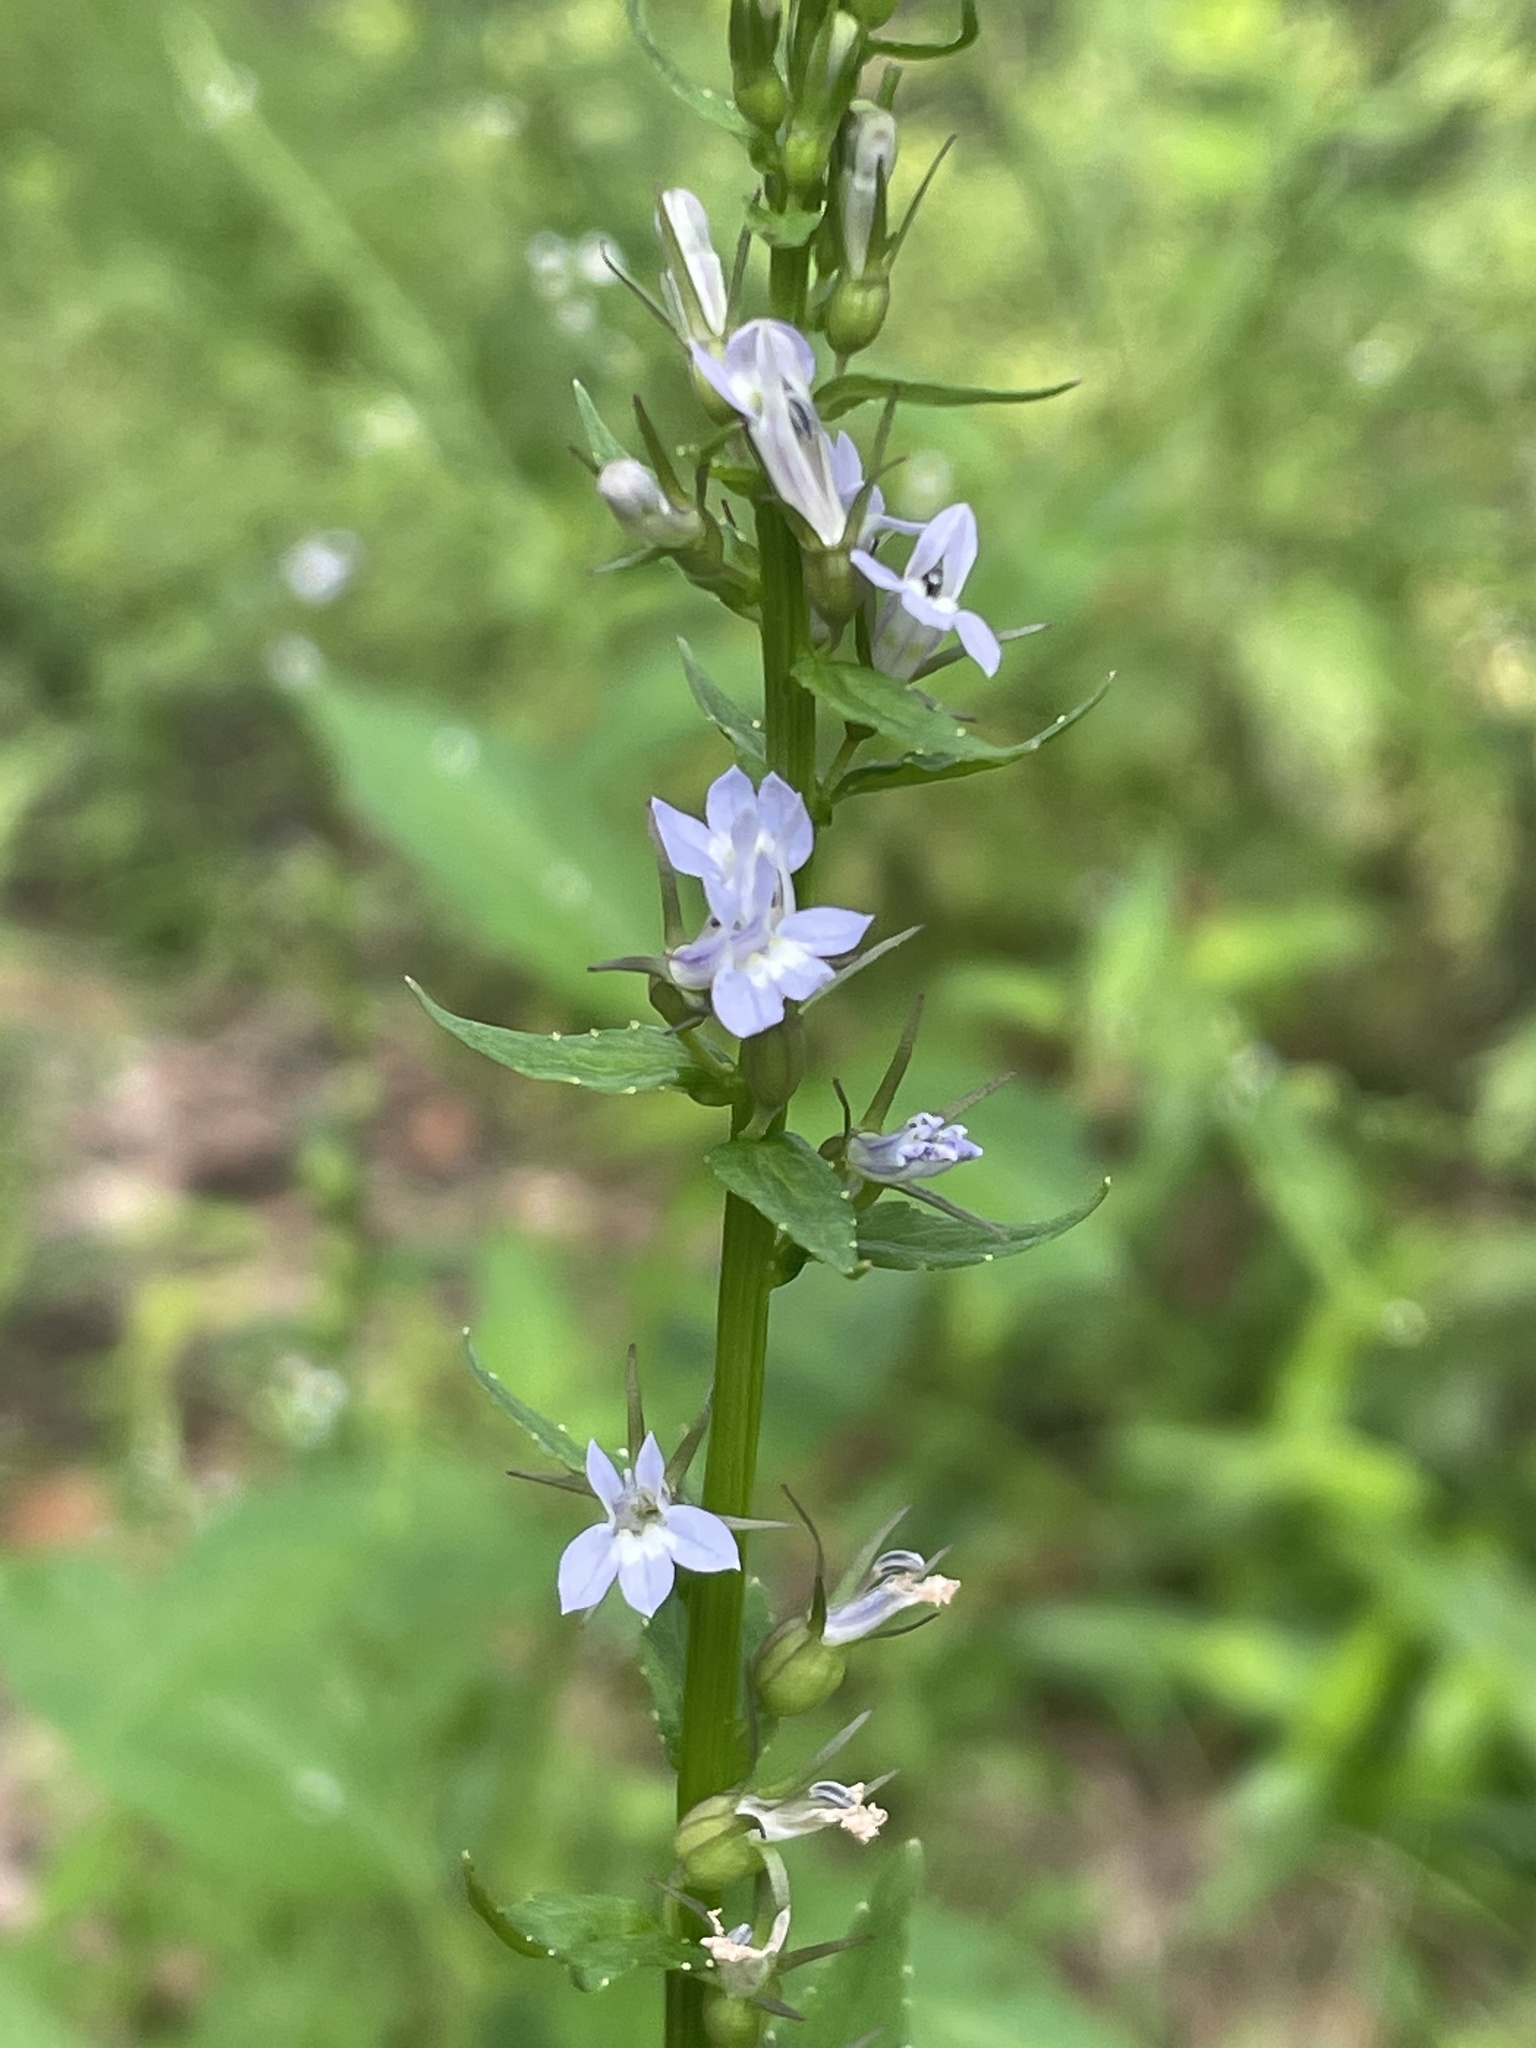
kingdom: Plantae
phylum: Tracheophyta
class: Magnoliopsida
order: Asterales
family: Campanulaceae
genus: Lobelia
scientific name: Lobelia inflata
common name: Indian tobacco
